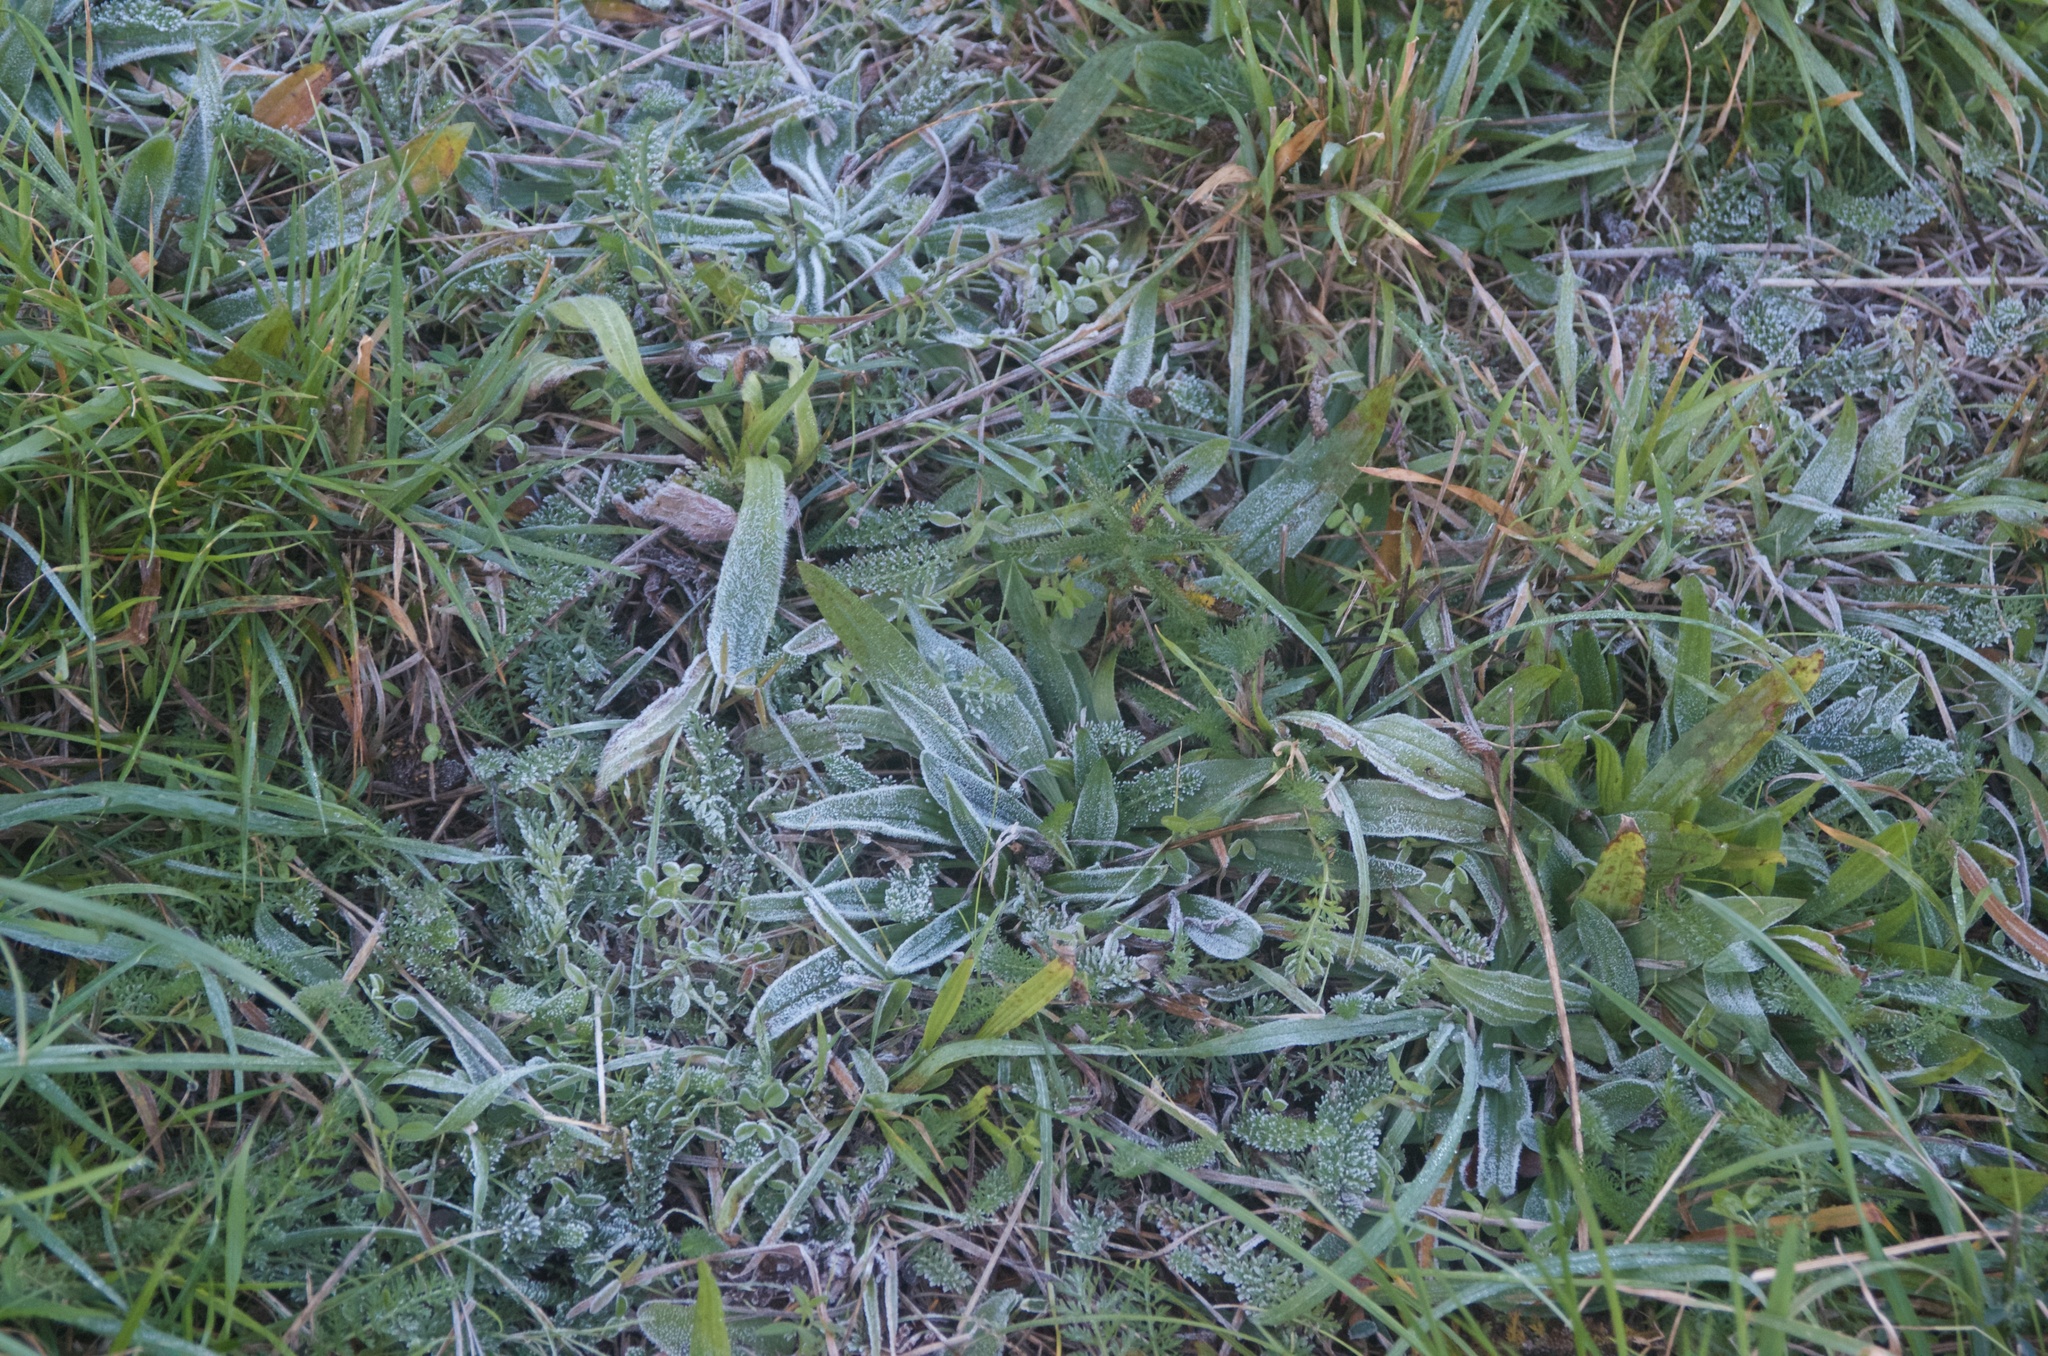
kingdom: Plantae
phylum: Tracheophyta
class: Magnoliopsida
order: Lamiales
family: Plantaginaceae
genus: Plantago
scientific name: Plantago lanceolata
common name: Ribwort plantain
